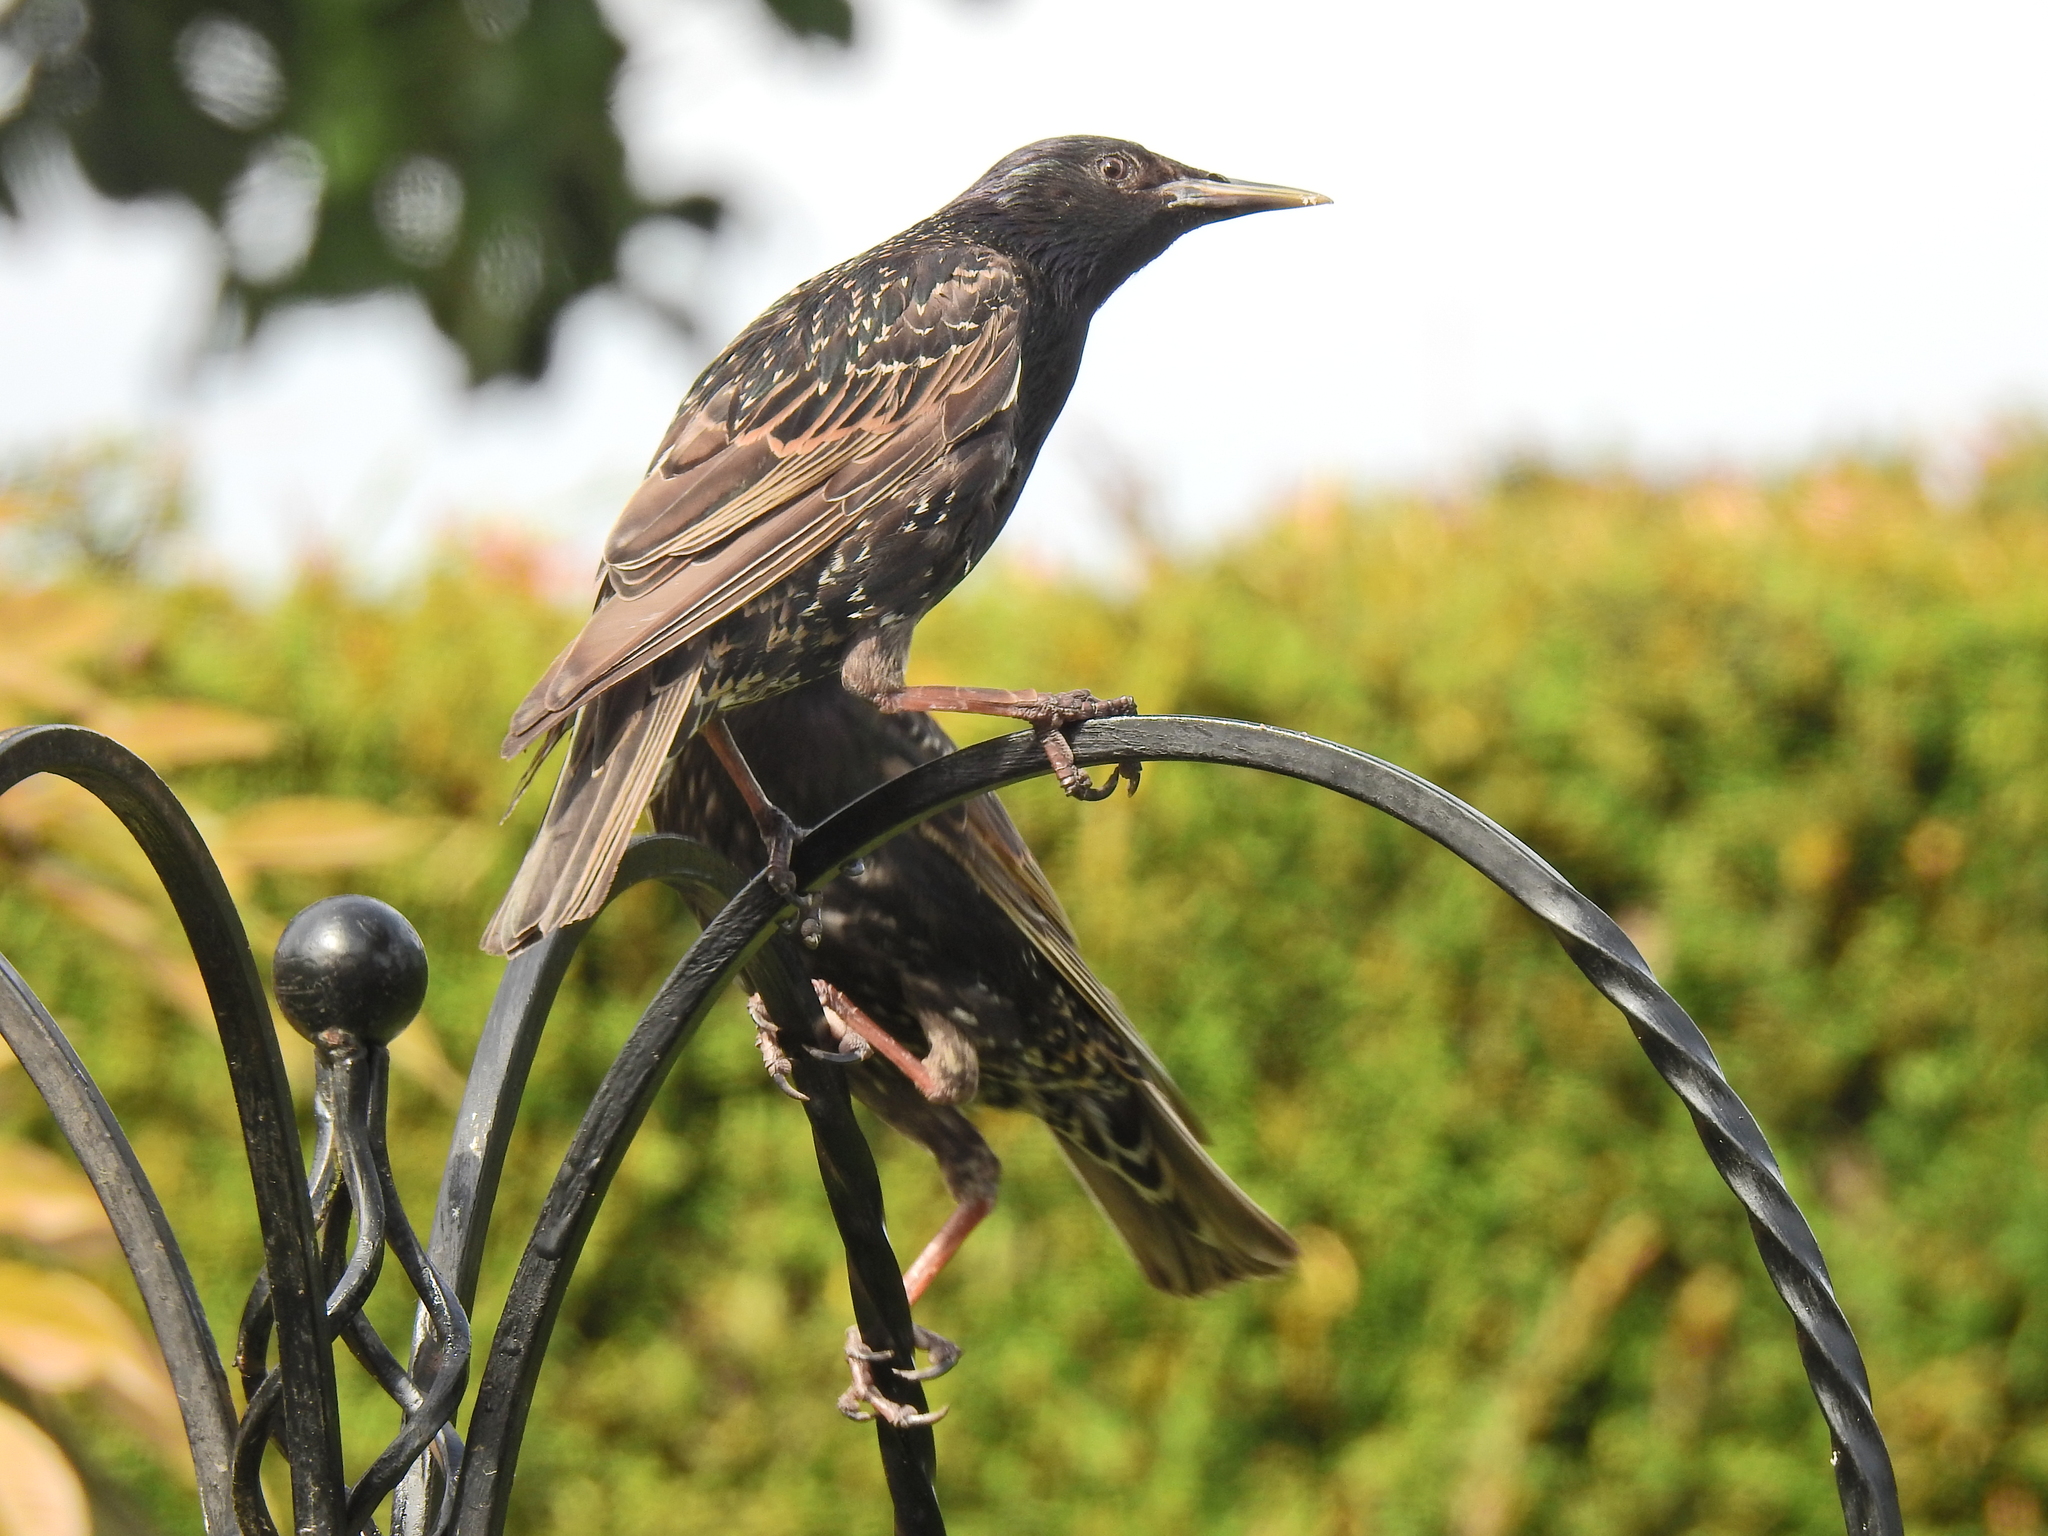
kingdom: Animalia
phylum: Chordata
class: Aves
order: Passeriformes
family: Sturnidae
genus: Sturnus
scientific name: Sturnus vulgaris
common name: Common starling
